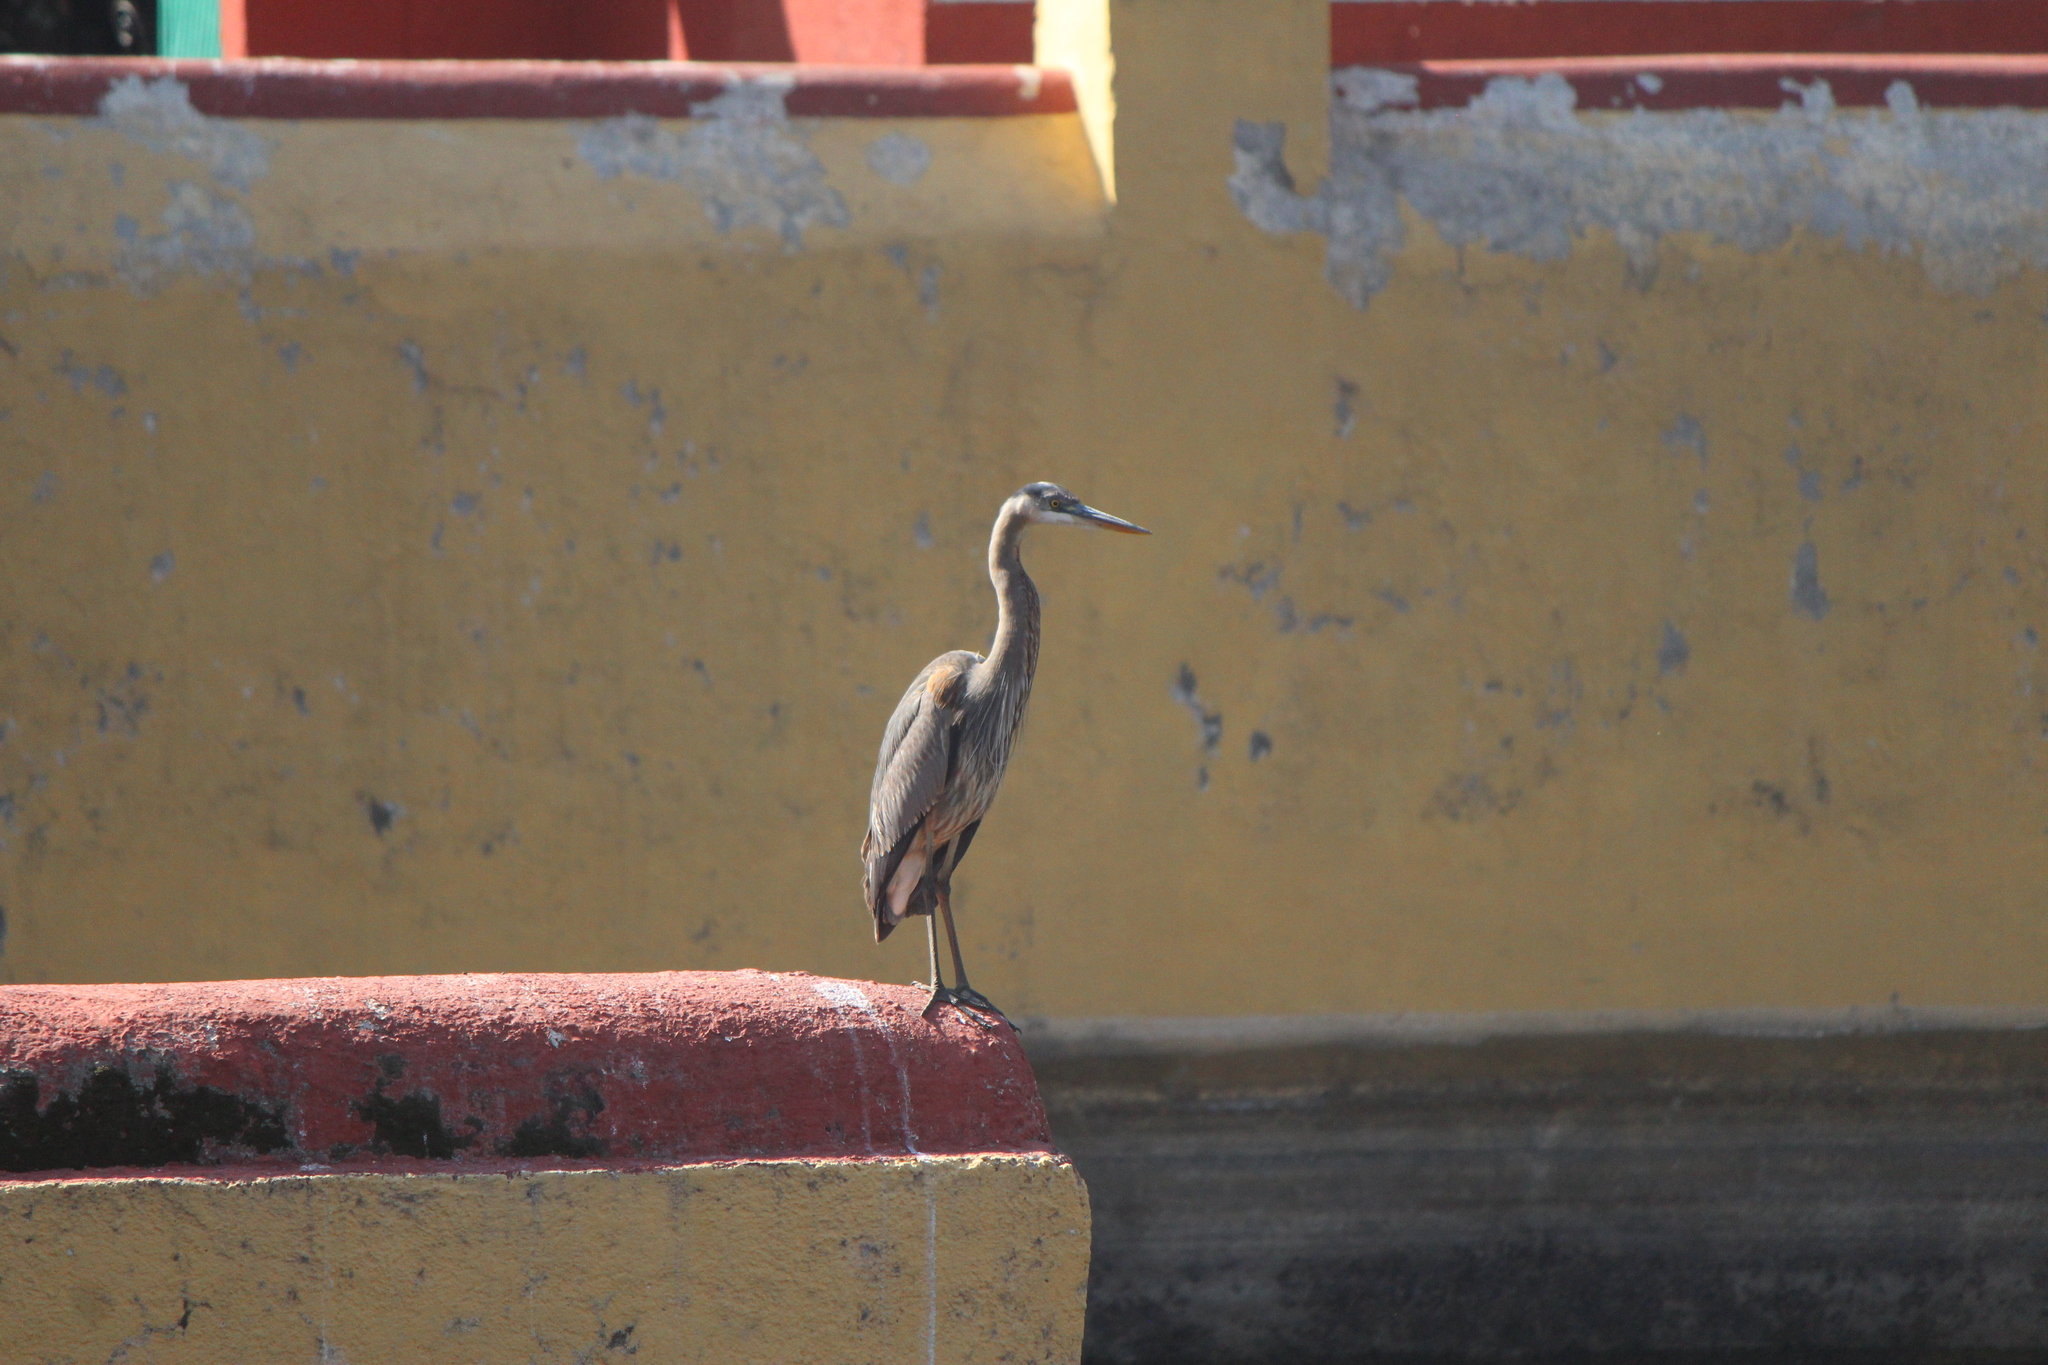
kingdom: Animalia
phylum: Chordata
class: Aves
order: Pelecaniformes
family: Ardeidae
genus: Ardea
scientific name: Ardea herodias
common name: Great blue heron
